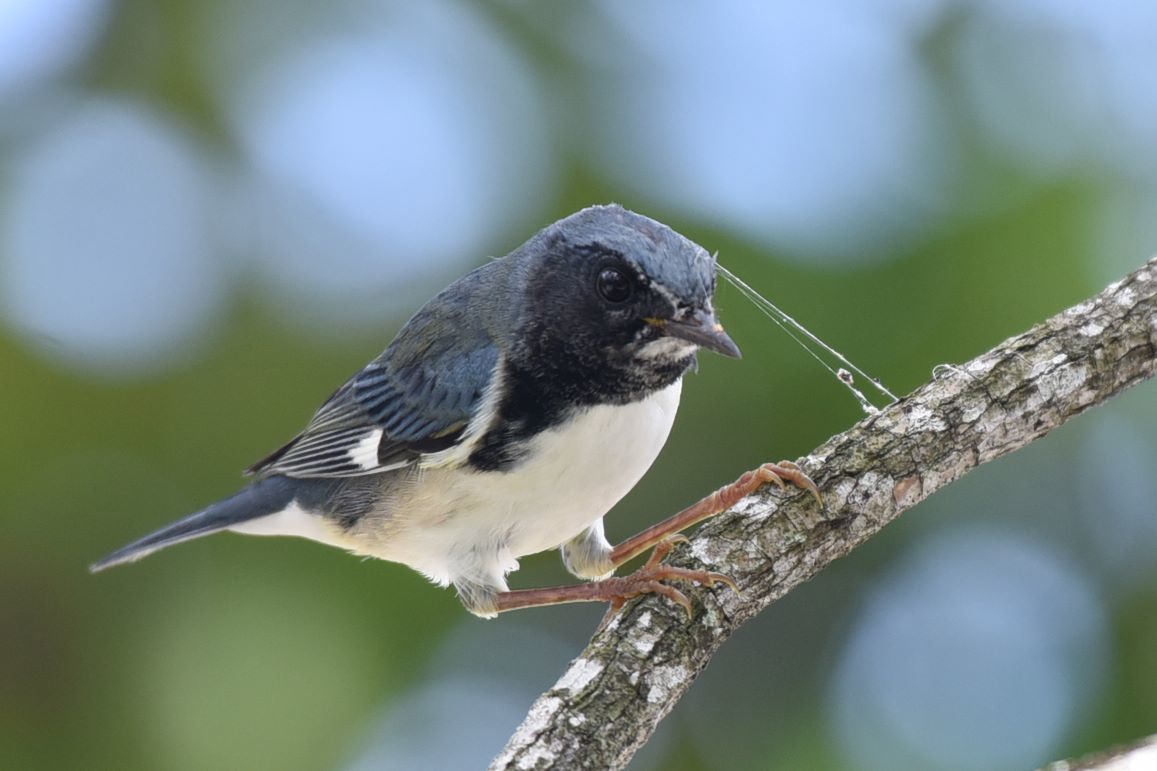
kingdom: Animalia
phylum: Chordata
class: Aves
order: Passeriformes
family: Parulidae
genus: Setophaga
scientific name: Setophaga caerulescens
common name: Black-throated blue warbler
